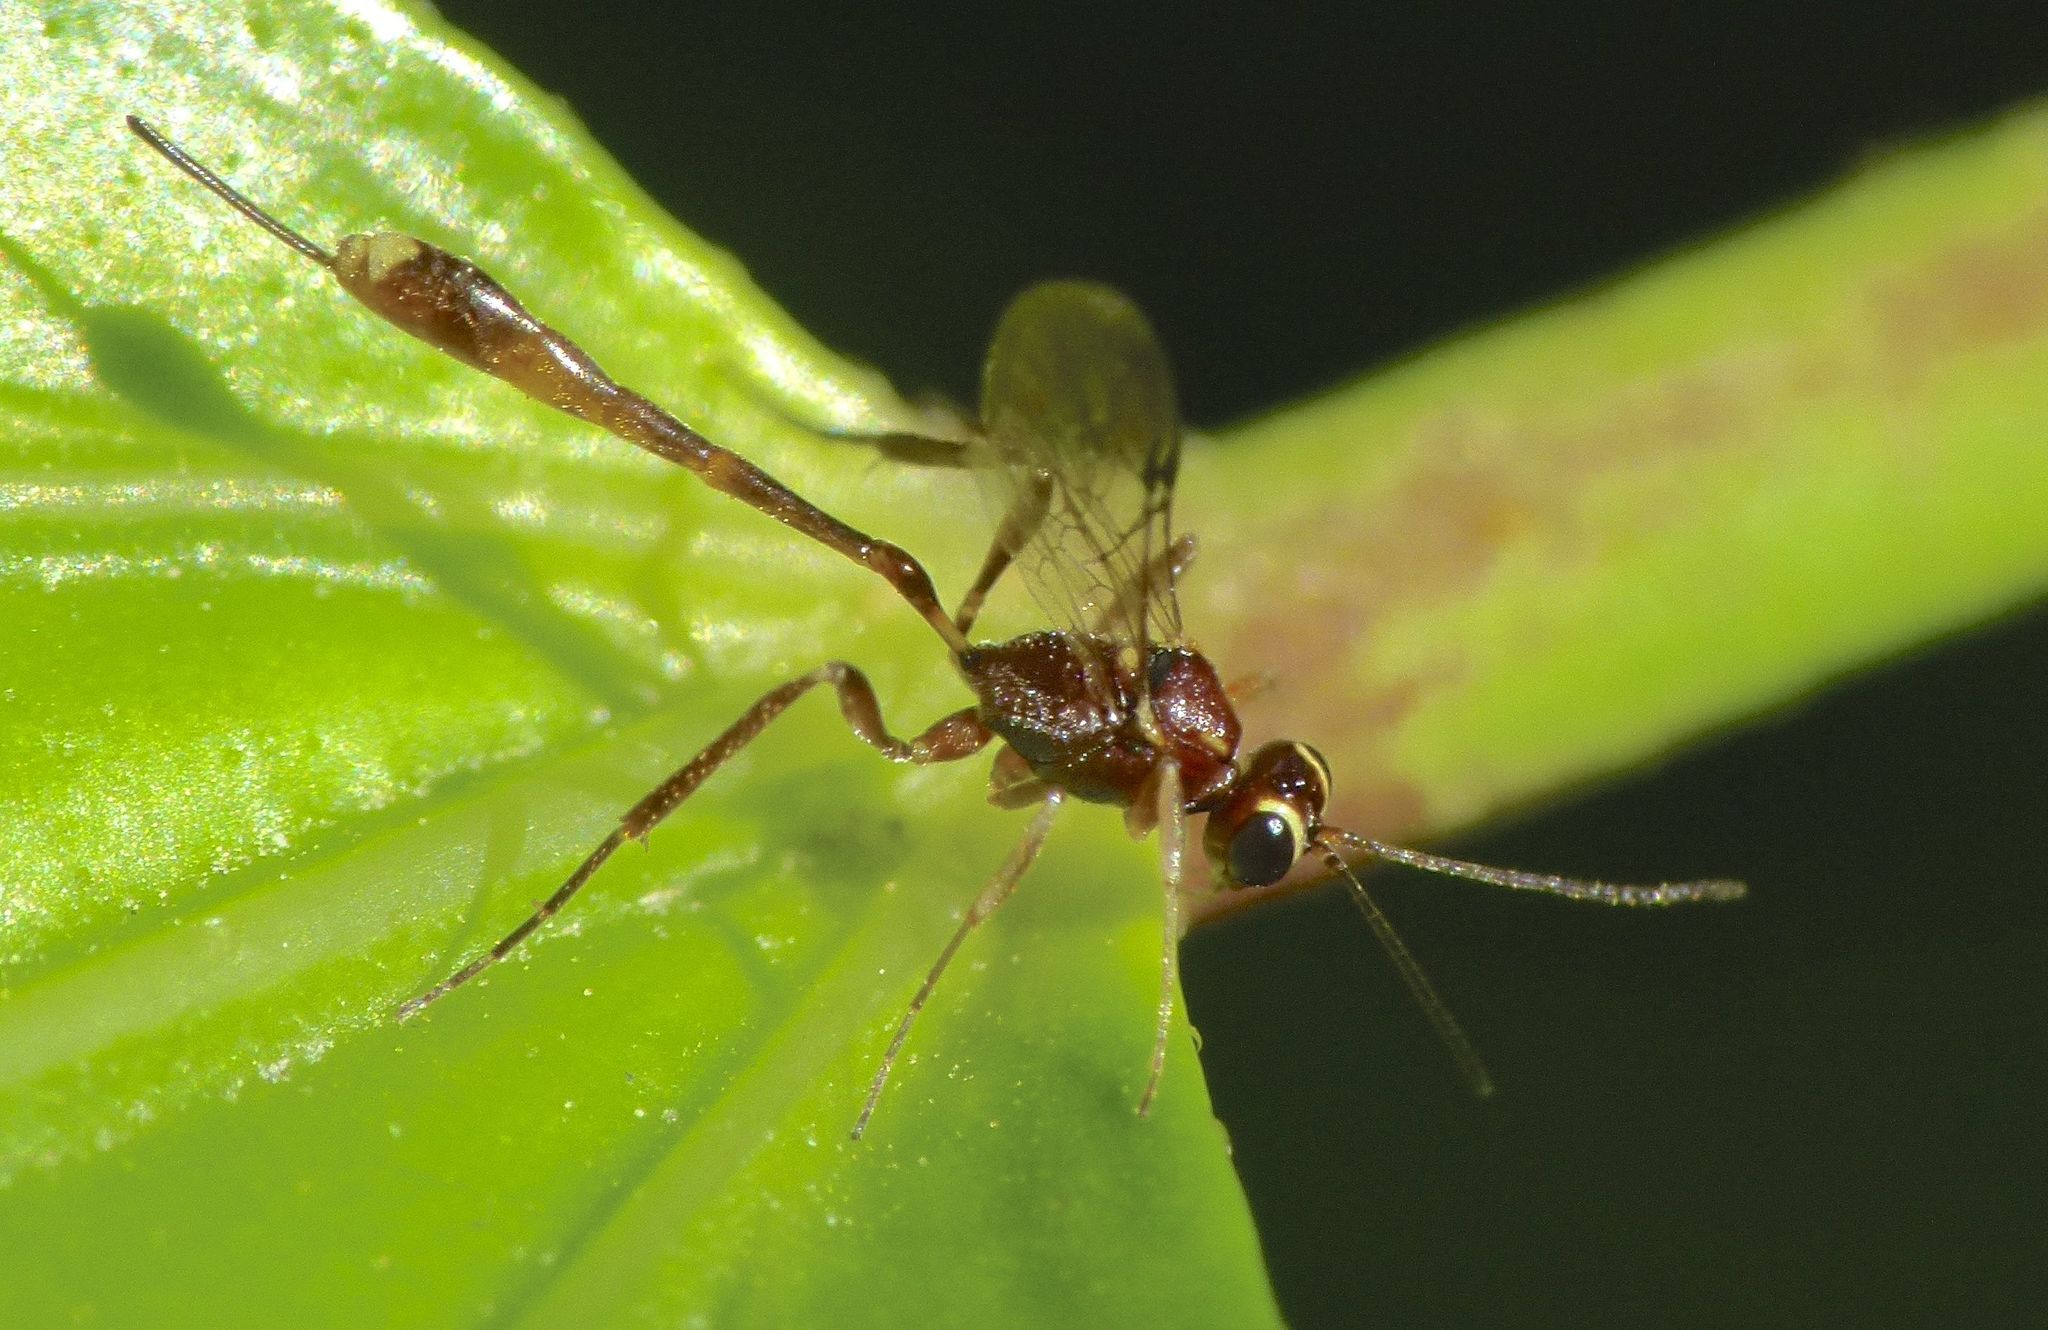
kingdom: Animalia
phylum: Arthropoda
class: Insecta
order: Hymenoptera
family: Ichneumonidae
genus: Anomalon
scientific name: Anomalon
